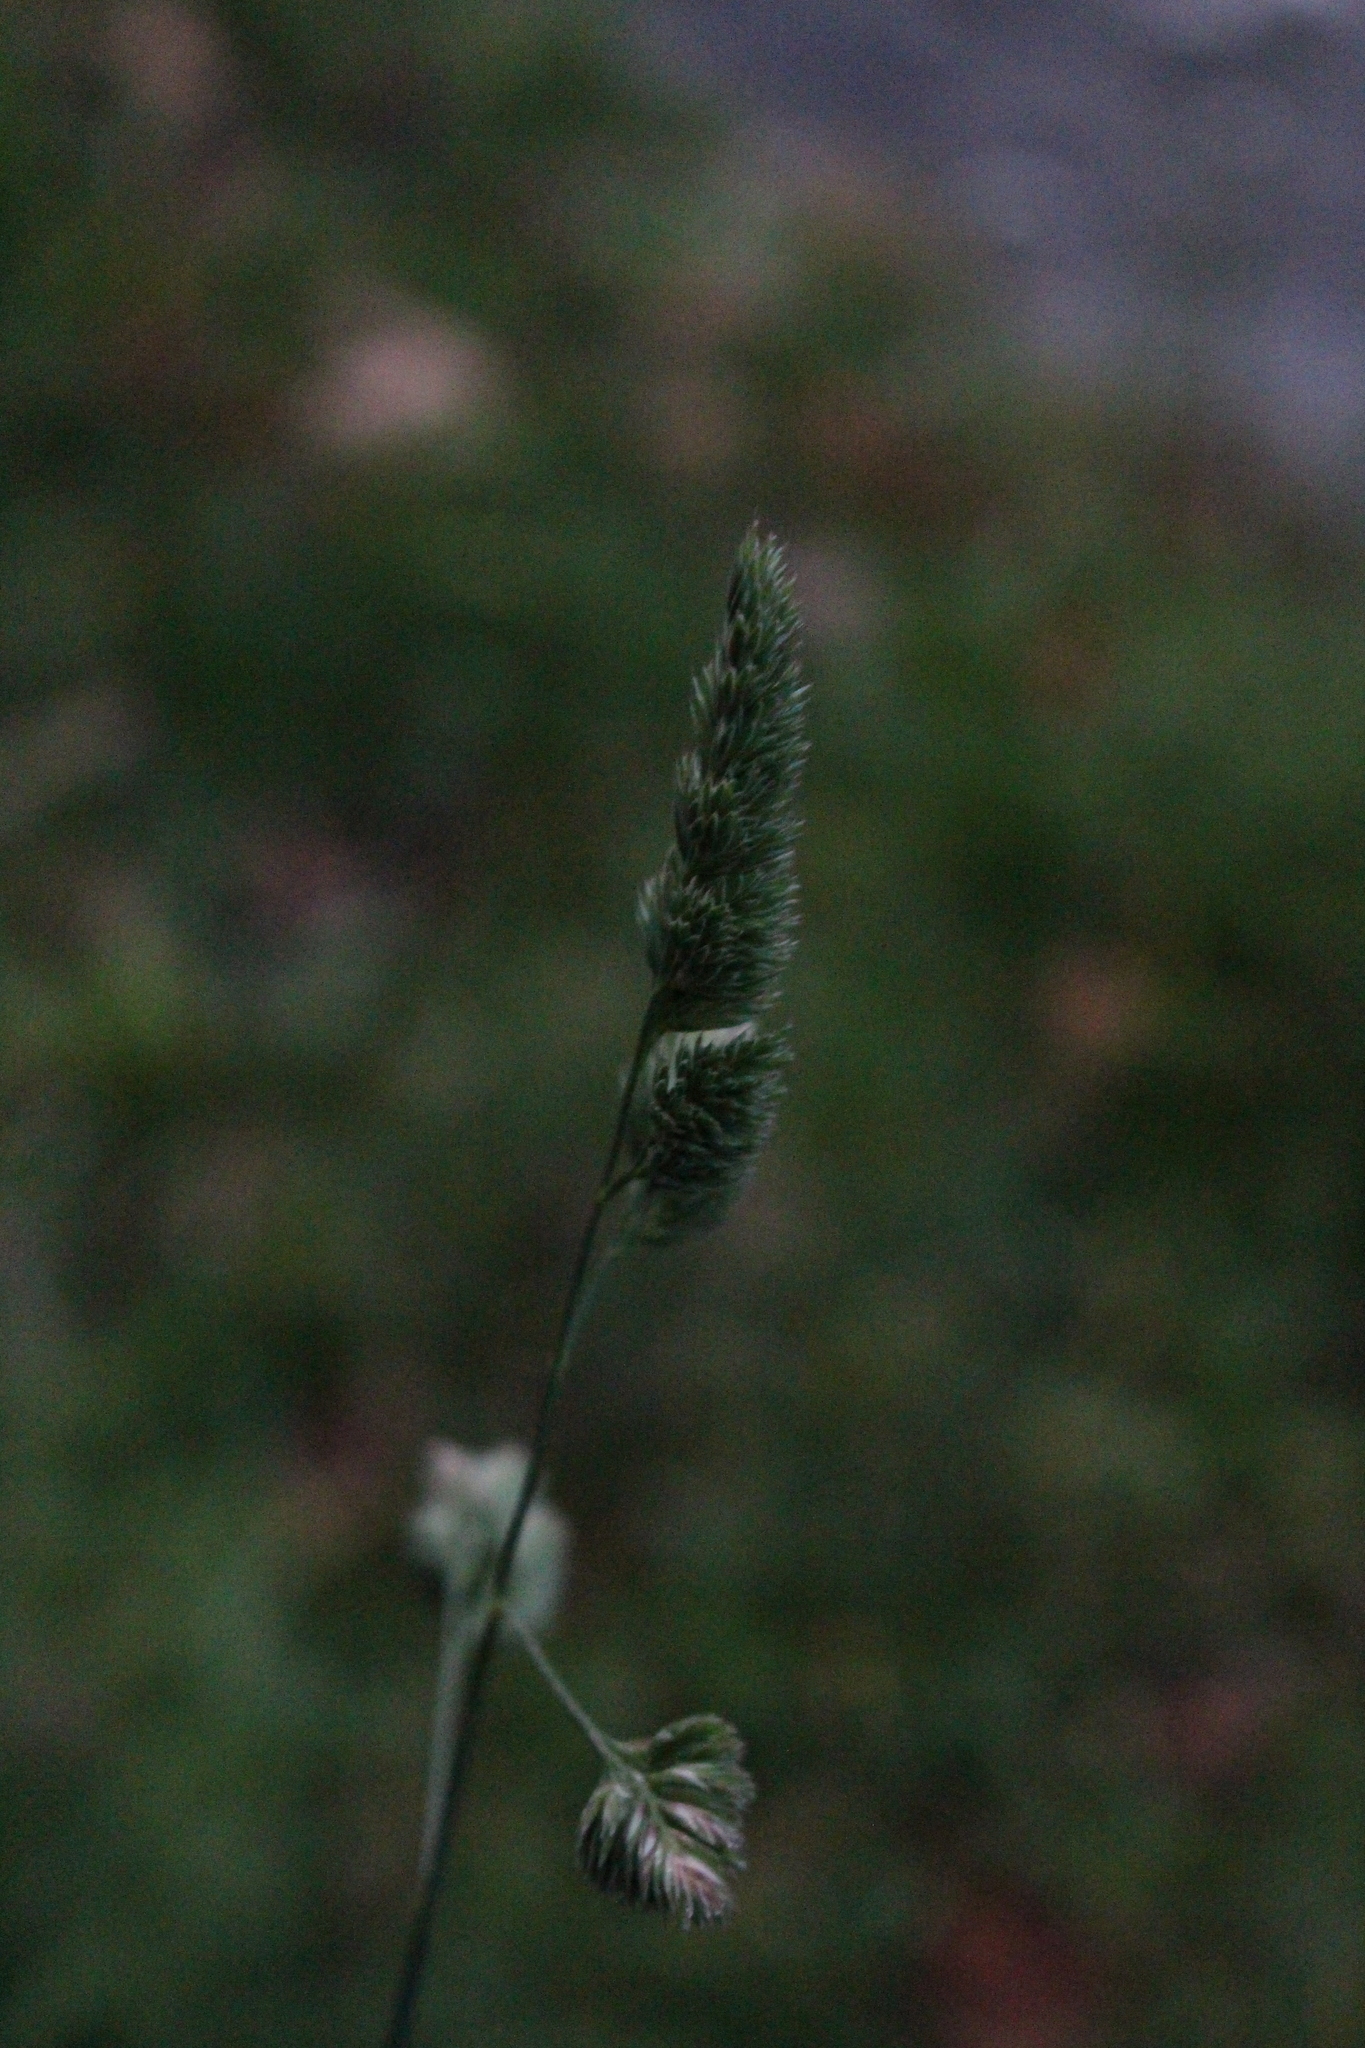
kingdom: Plantae
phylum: Tracheophyta
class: Liliopsida
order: Poales
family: Poaceae
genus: Dactylis
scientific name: Dactylis glomerata
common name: Orchardgrass
